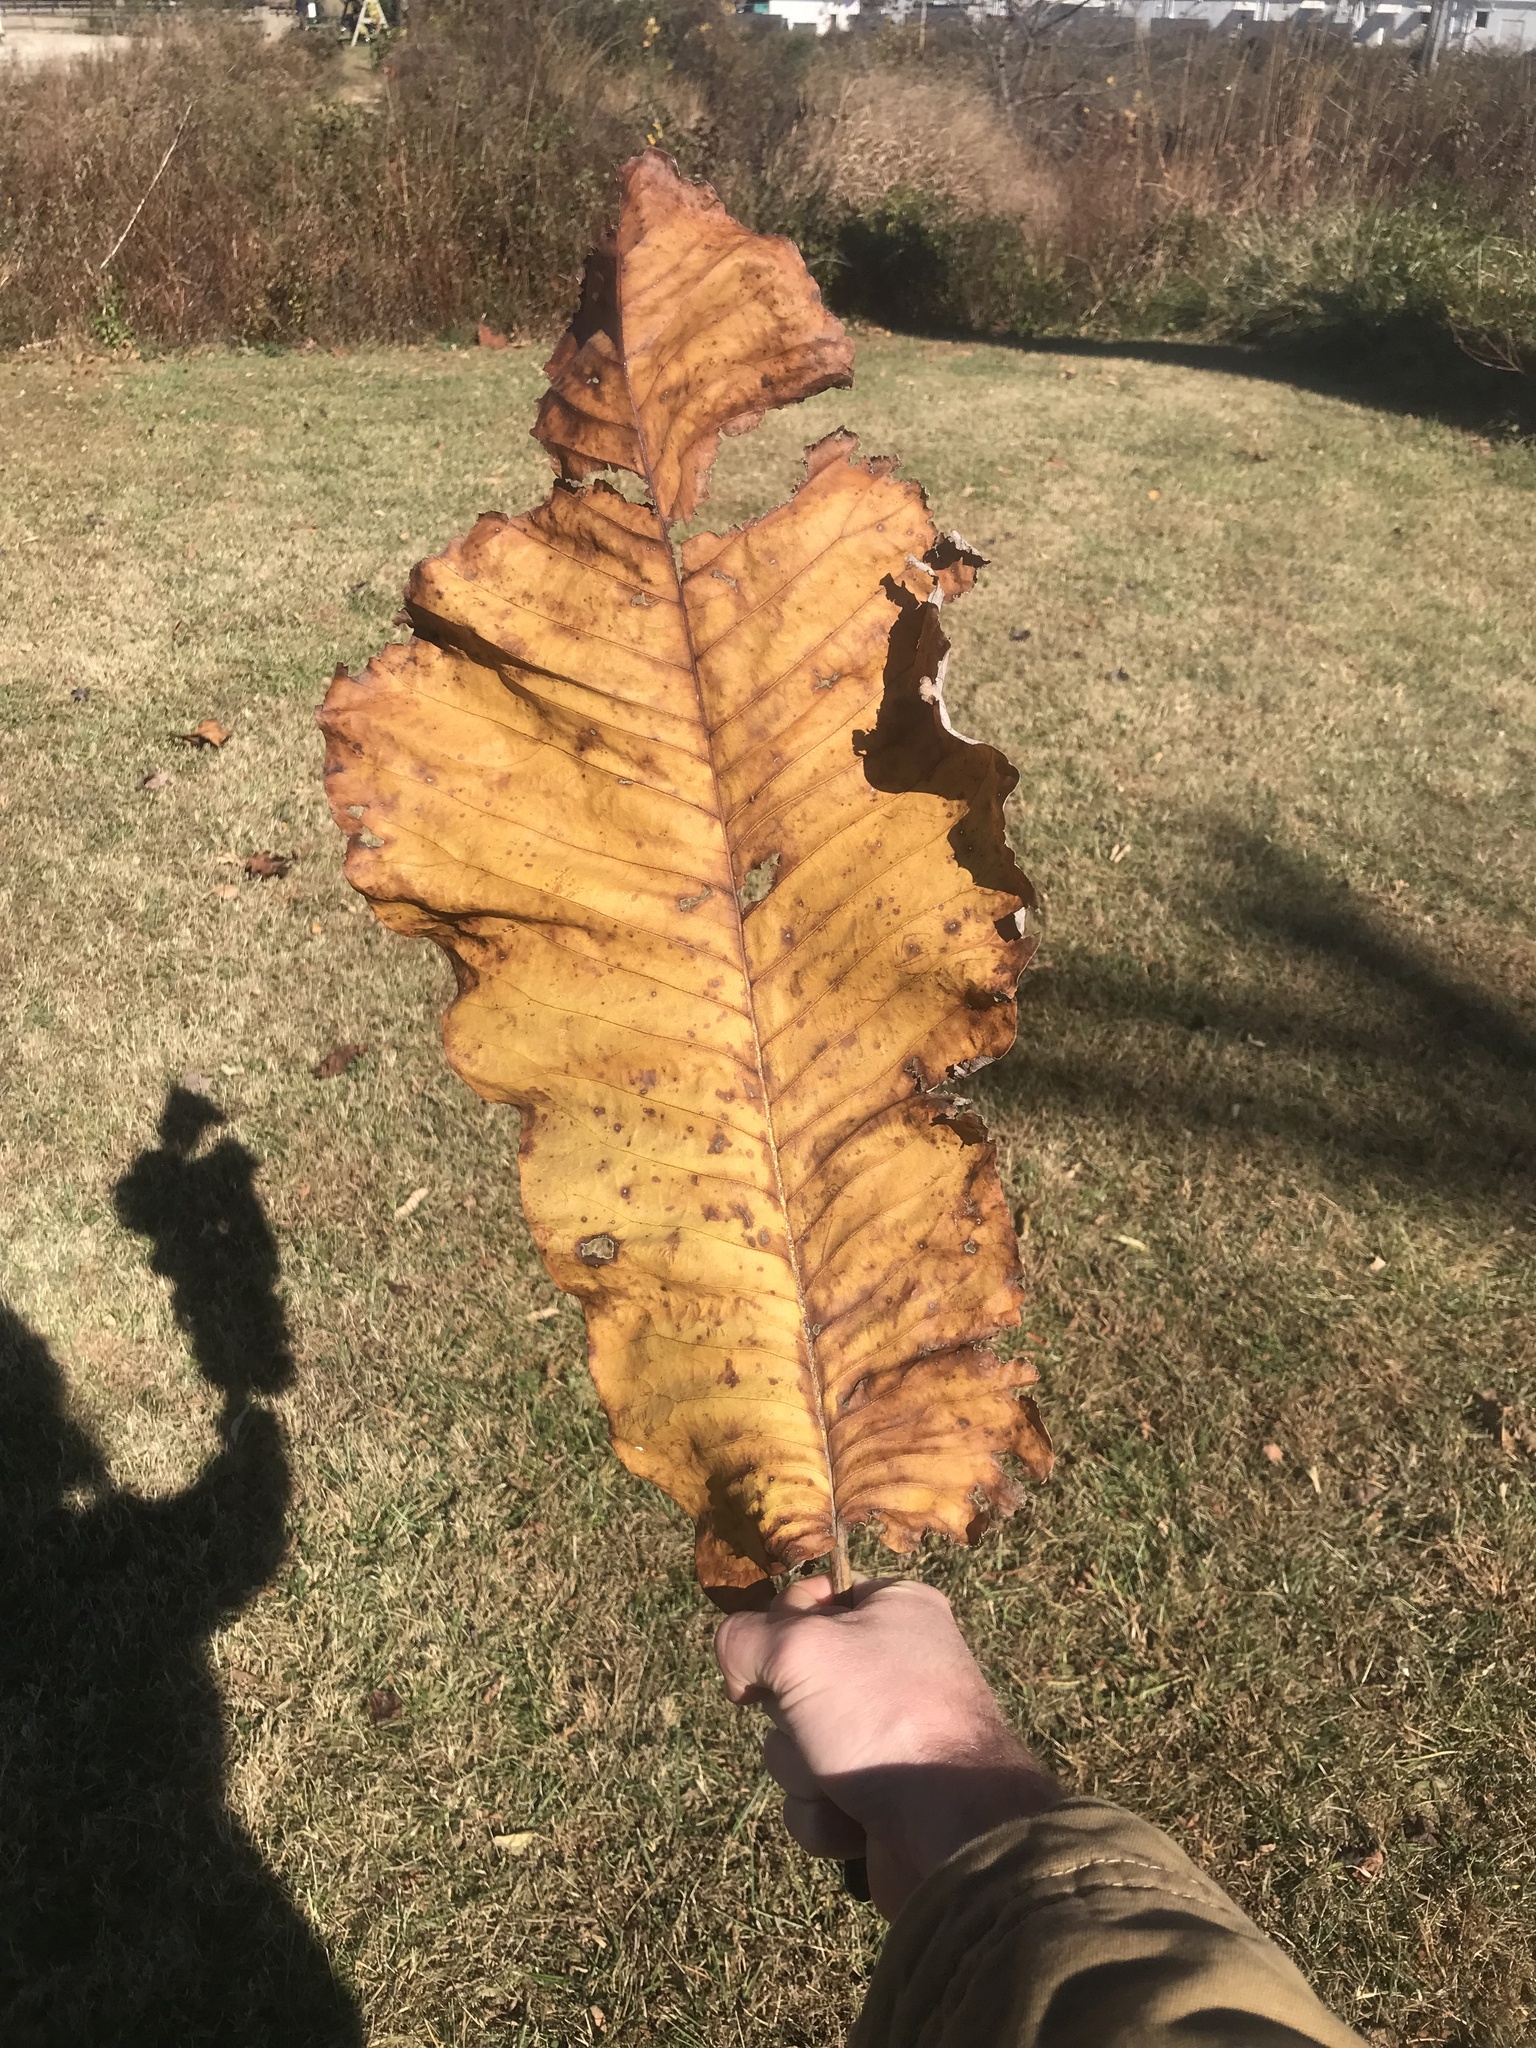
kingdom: Plantae
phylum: Tracheophyta
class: Magnoliopsida
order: Magnoliales
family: Magnoliaceae
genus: Magnolia
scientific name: Magnolia macrophylla
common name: Big-leaf magnolia
